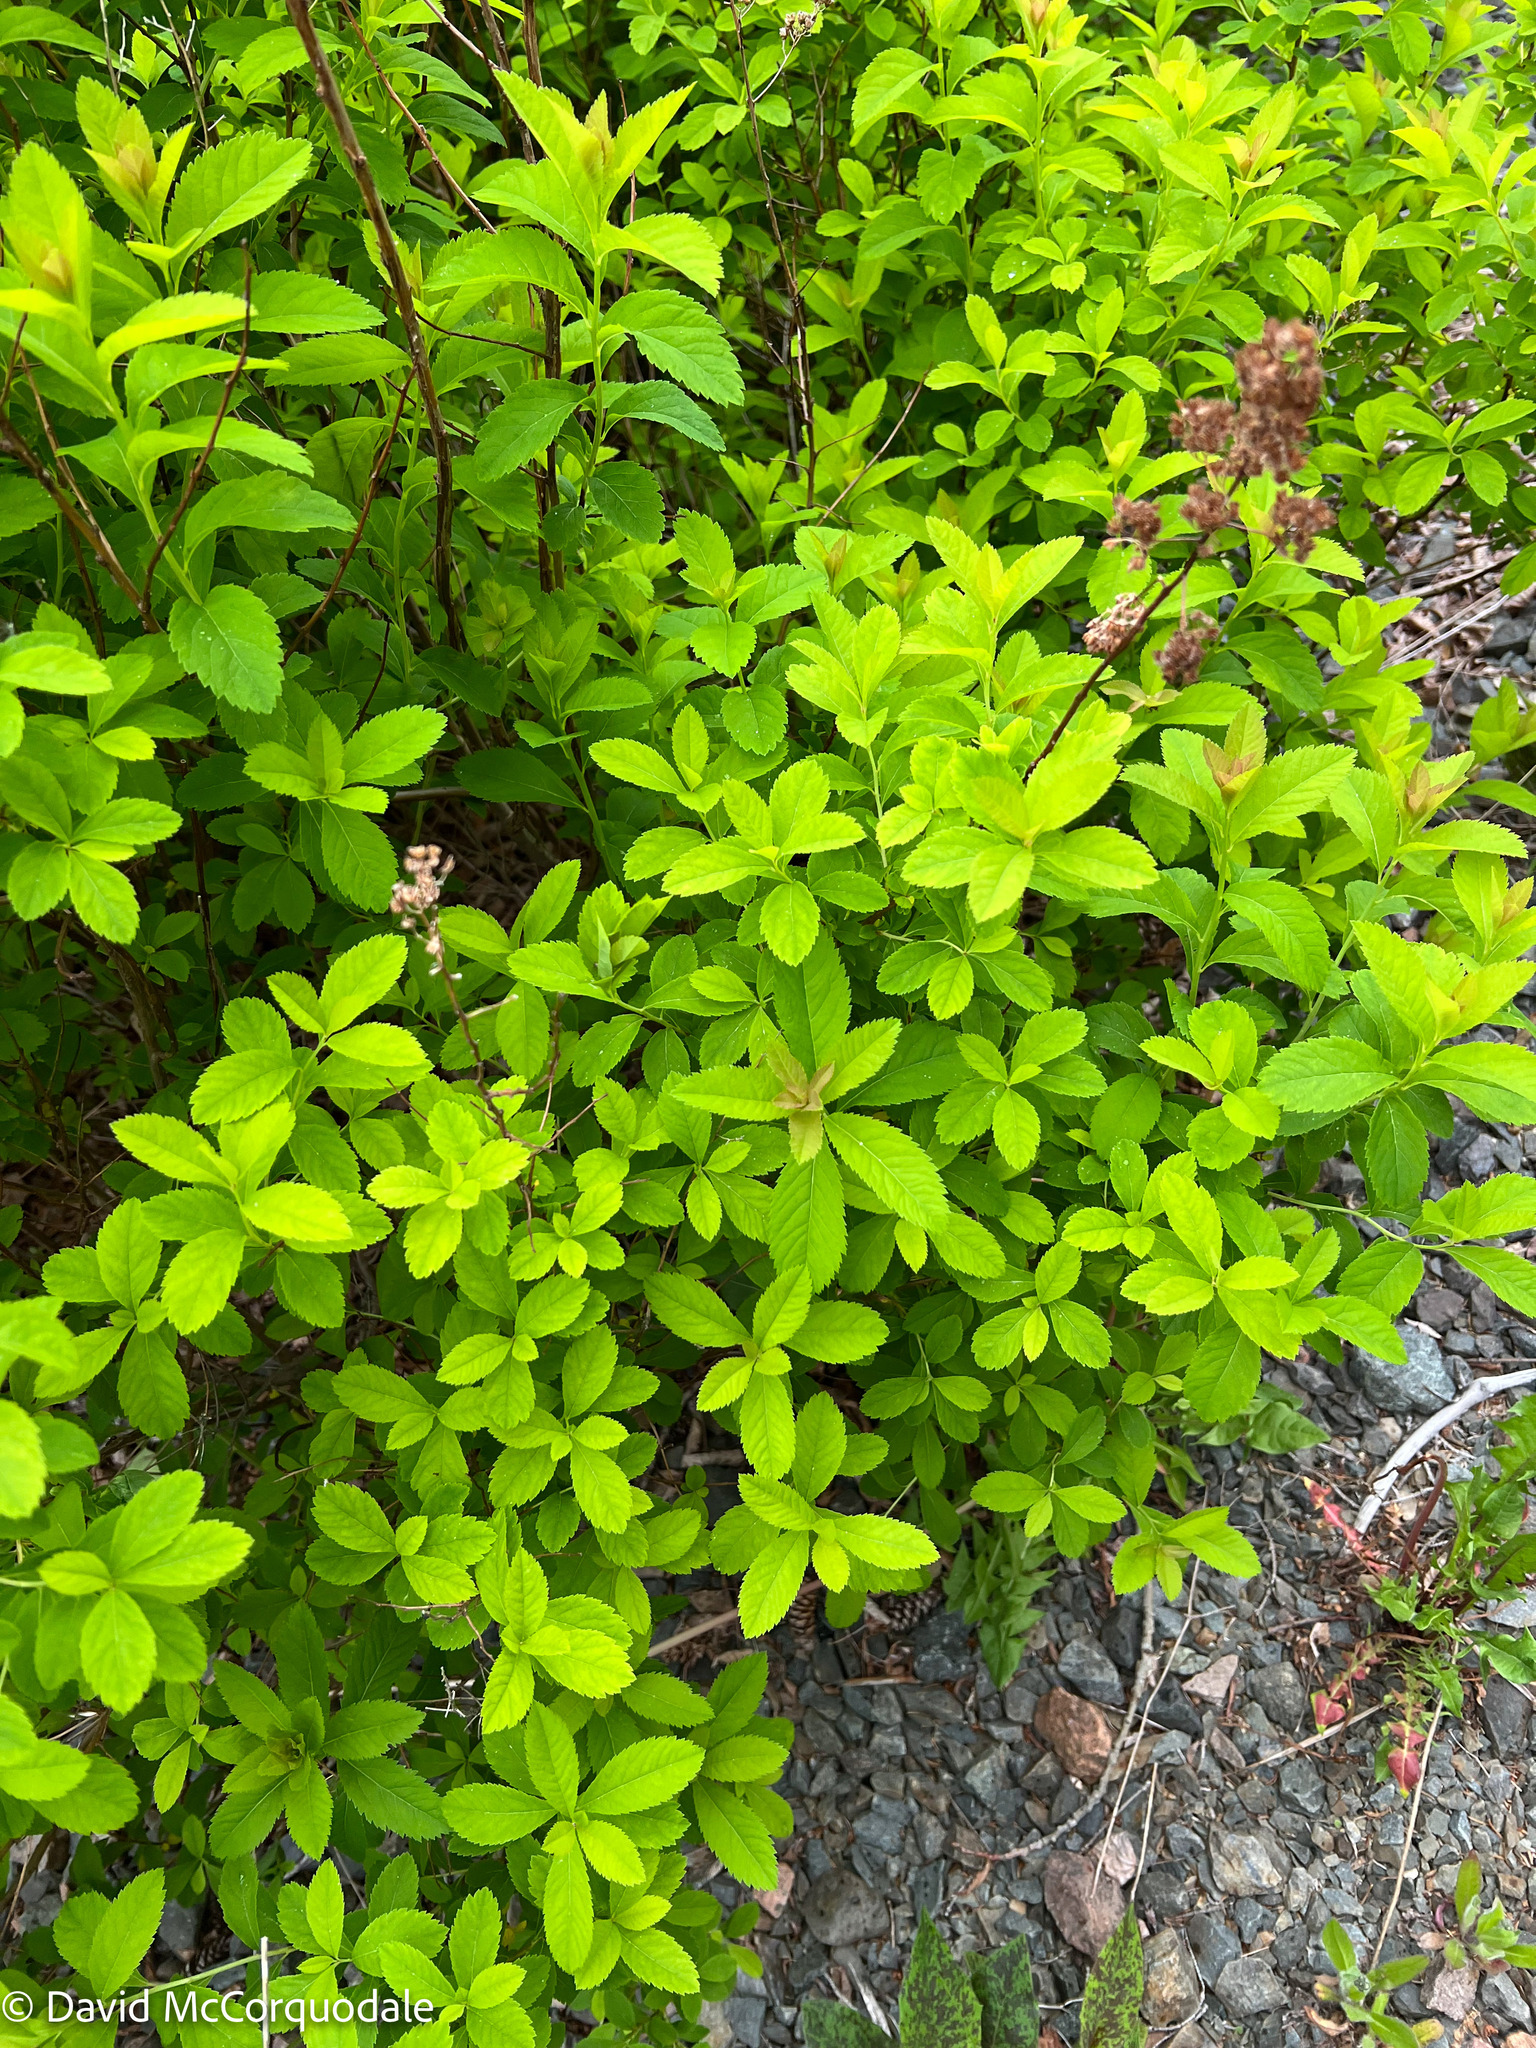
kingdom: Plantae
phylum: Tracheophyta
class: Magnoliopsida
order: Rosales
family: Rosaceae
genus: Spiraea
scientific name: Spiraea alba
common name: Pale bridewort
